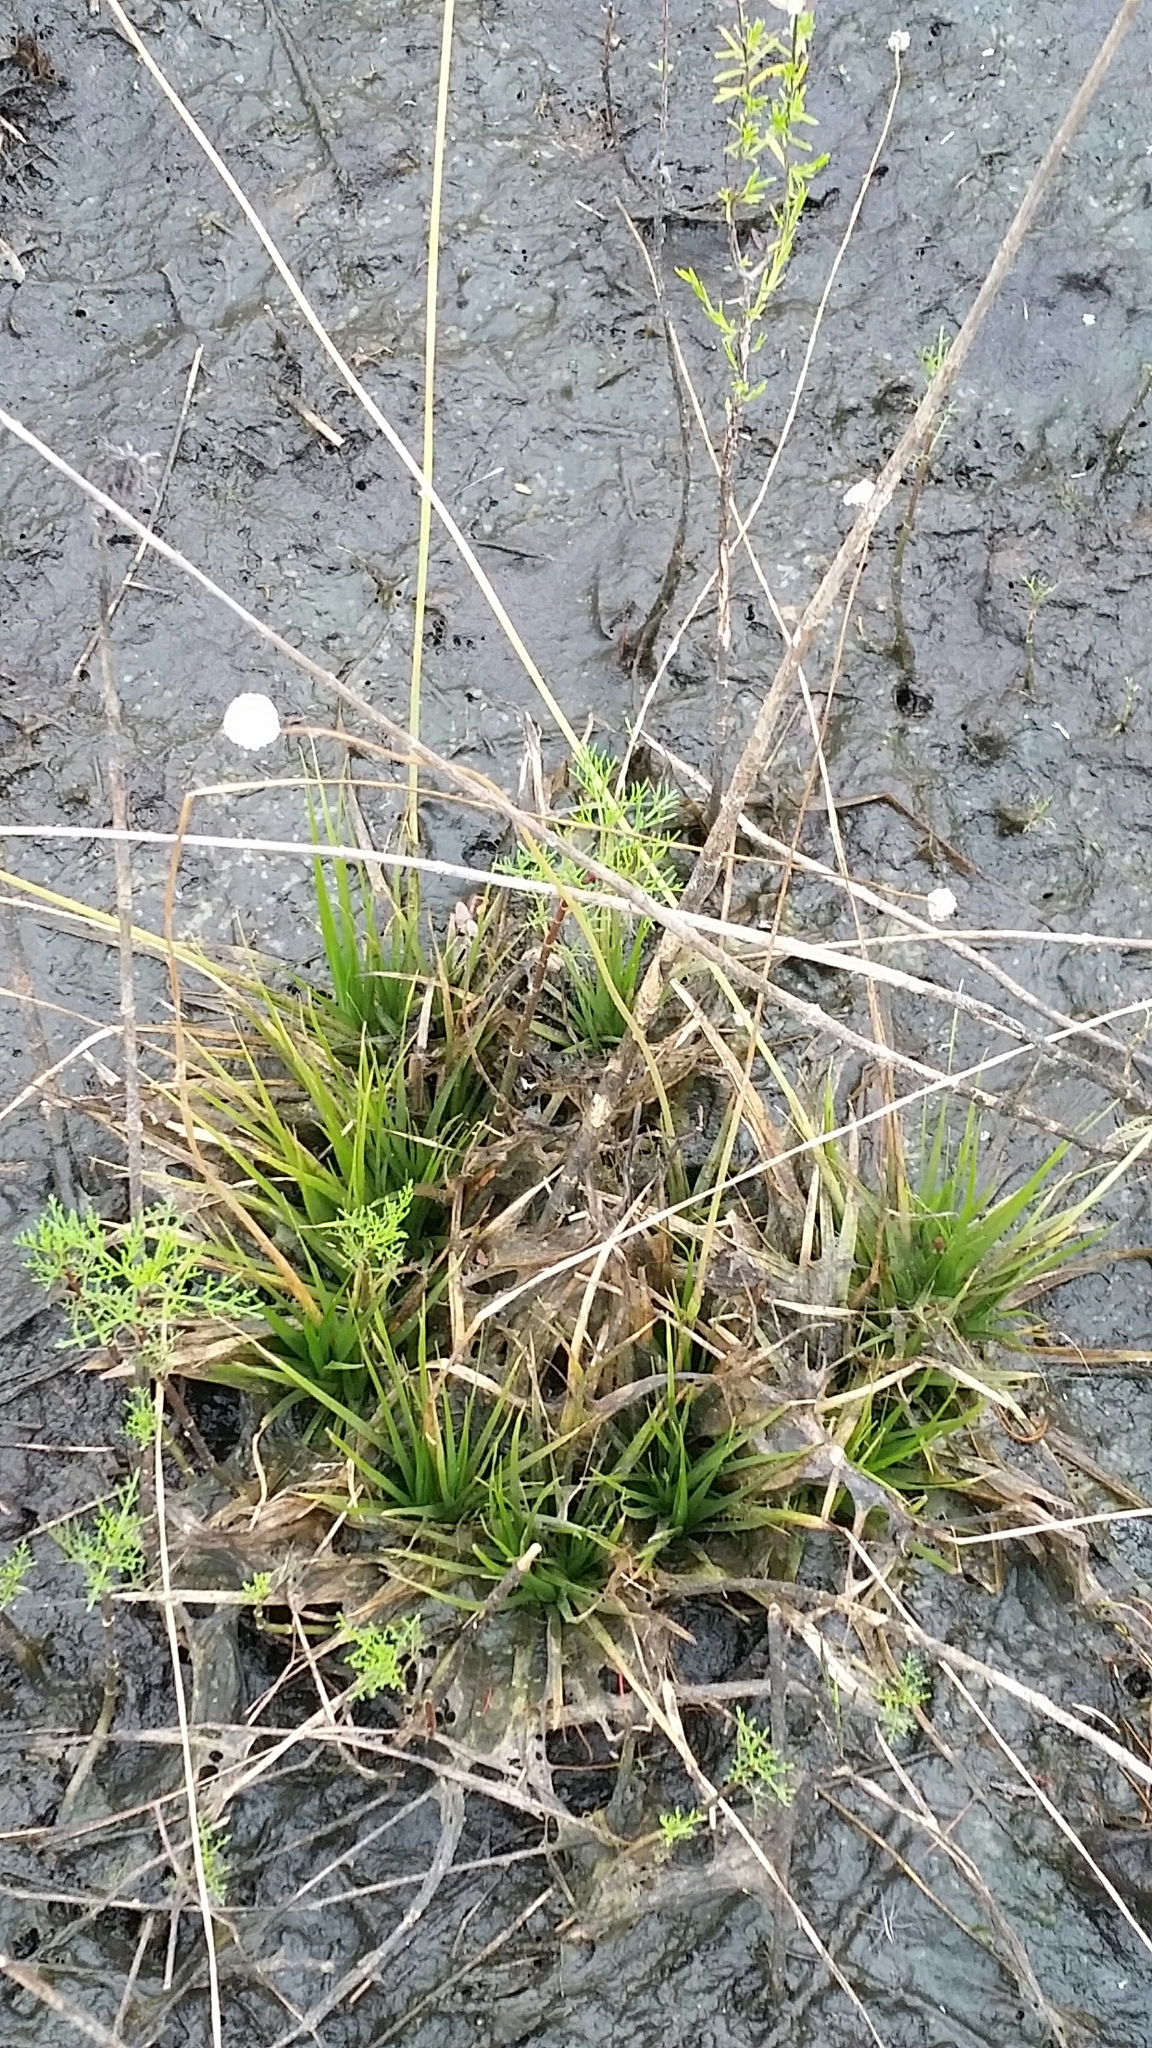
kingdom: Plantae
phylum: Tracheophyta
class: Liliopsida
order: Poales
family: Eriocaulaceae
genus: Eriocaulon
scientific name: Eriocaulon compressum
